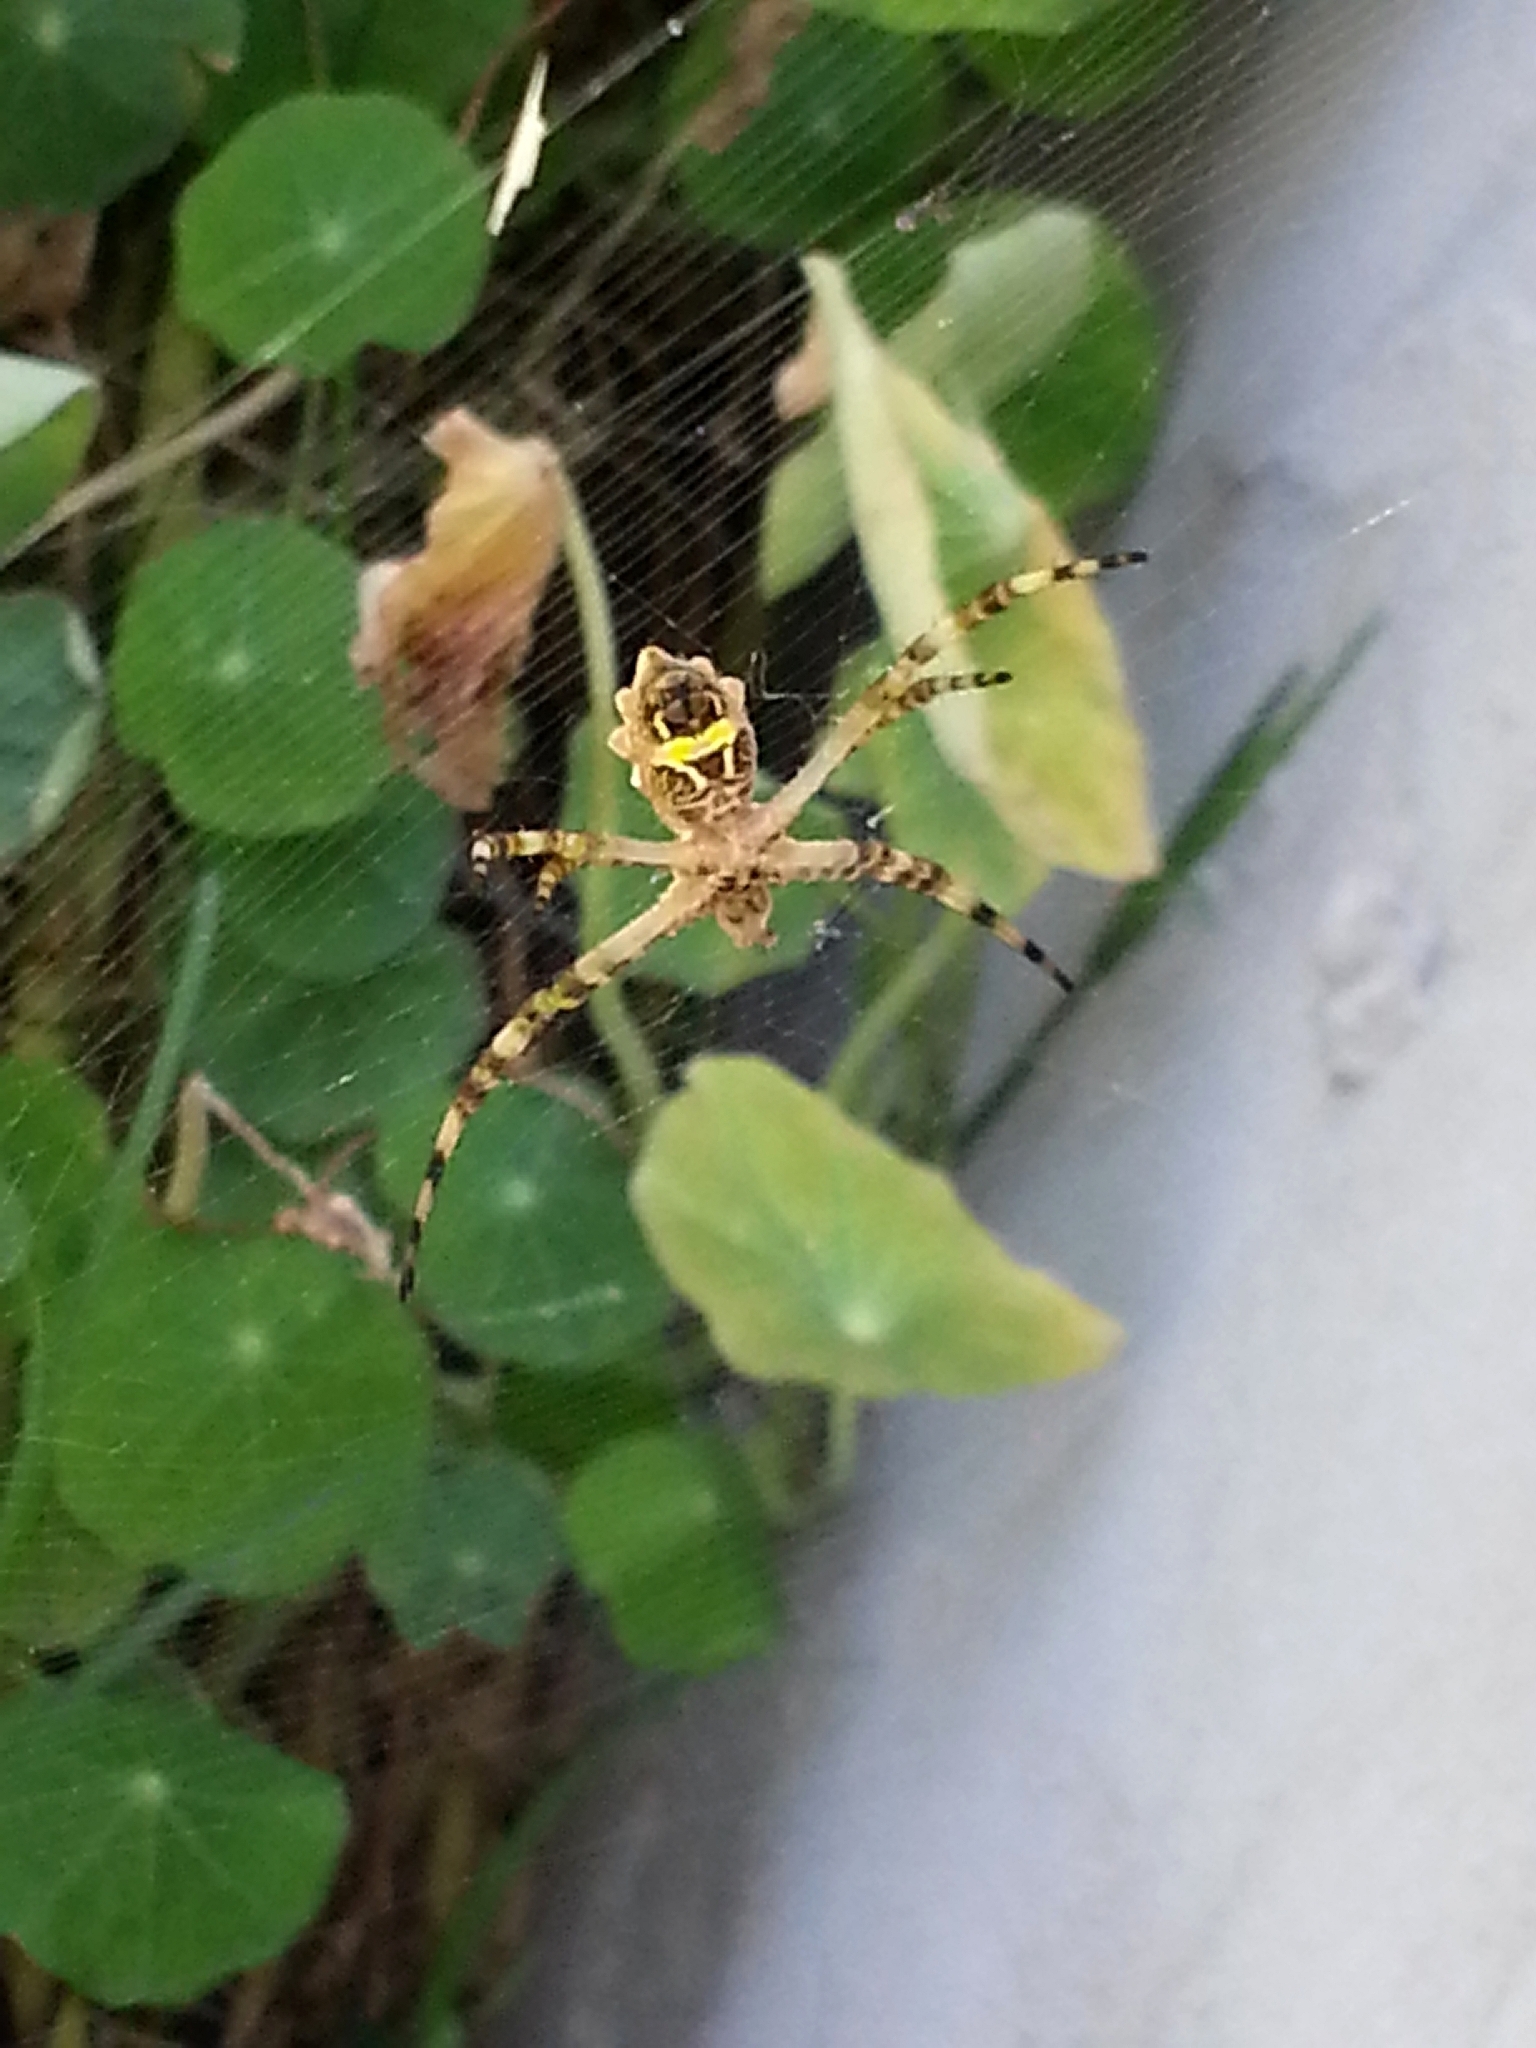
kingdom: Animalia
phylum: Arthropoda
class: Arachnida
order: Araneae
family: Araneidae
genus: Argiope
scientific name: Argiope argentata
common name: Orb weavers
